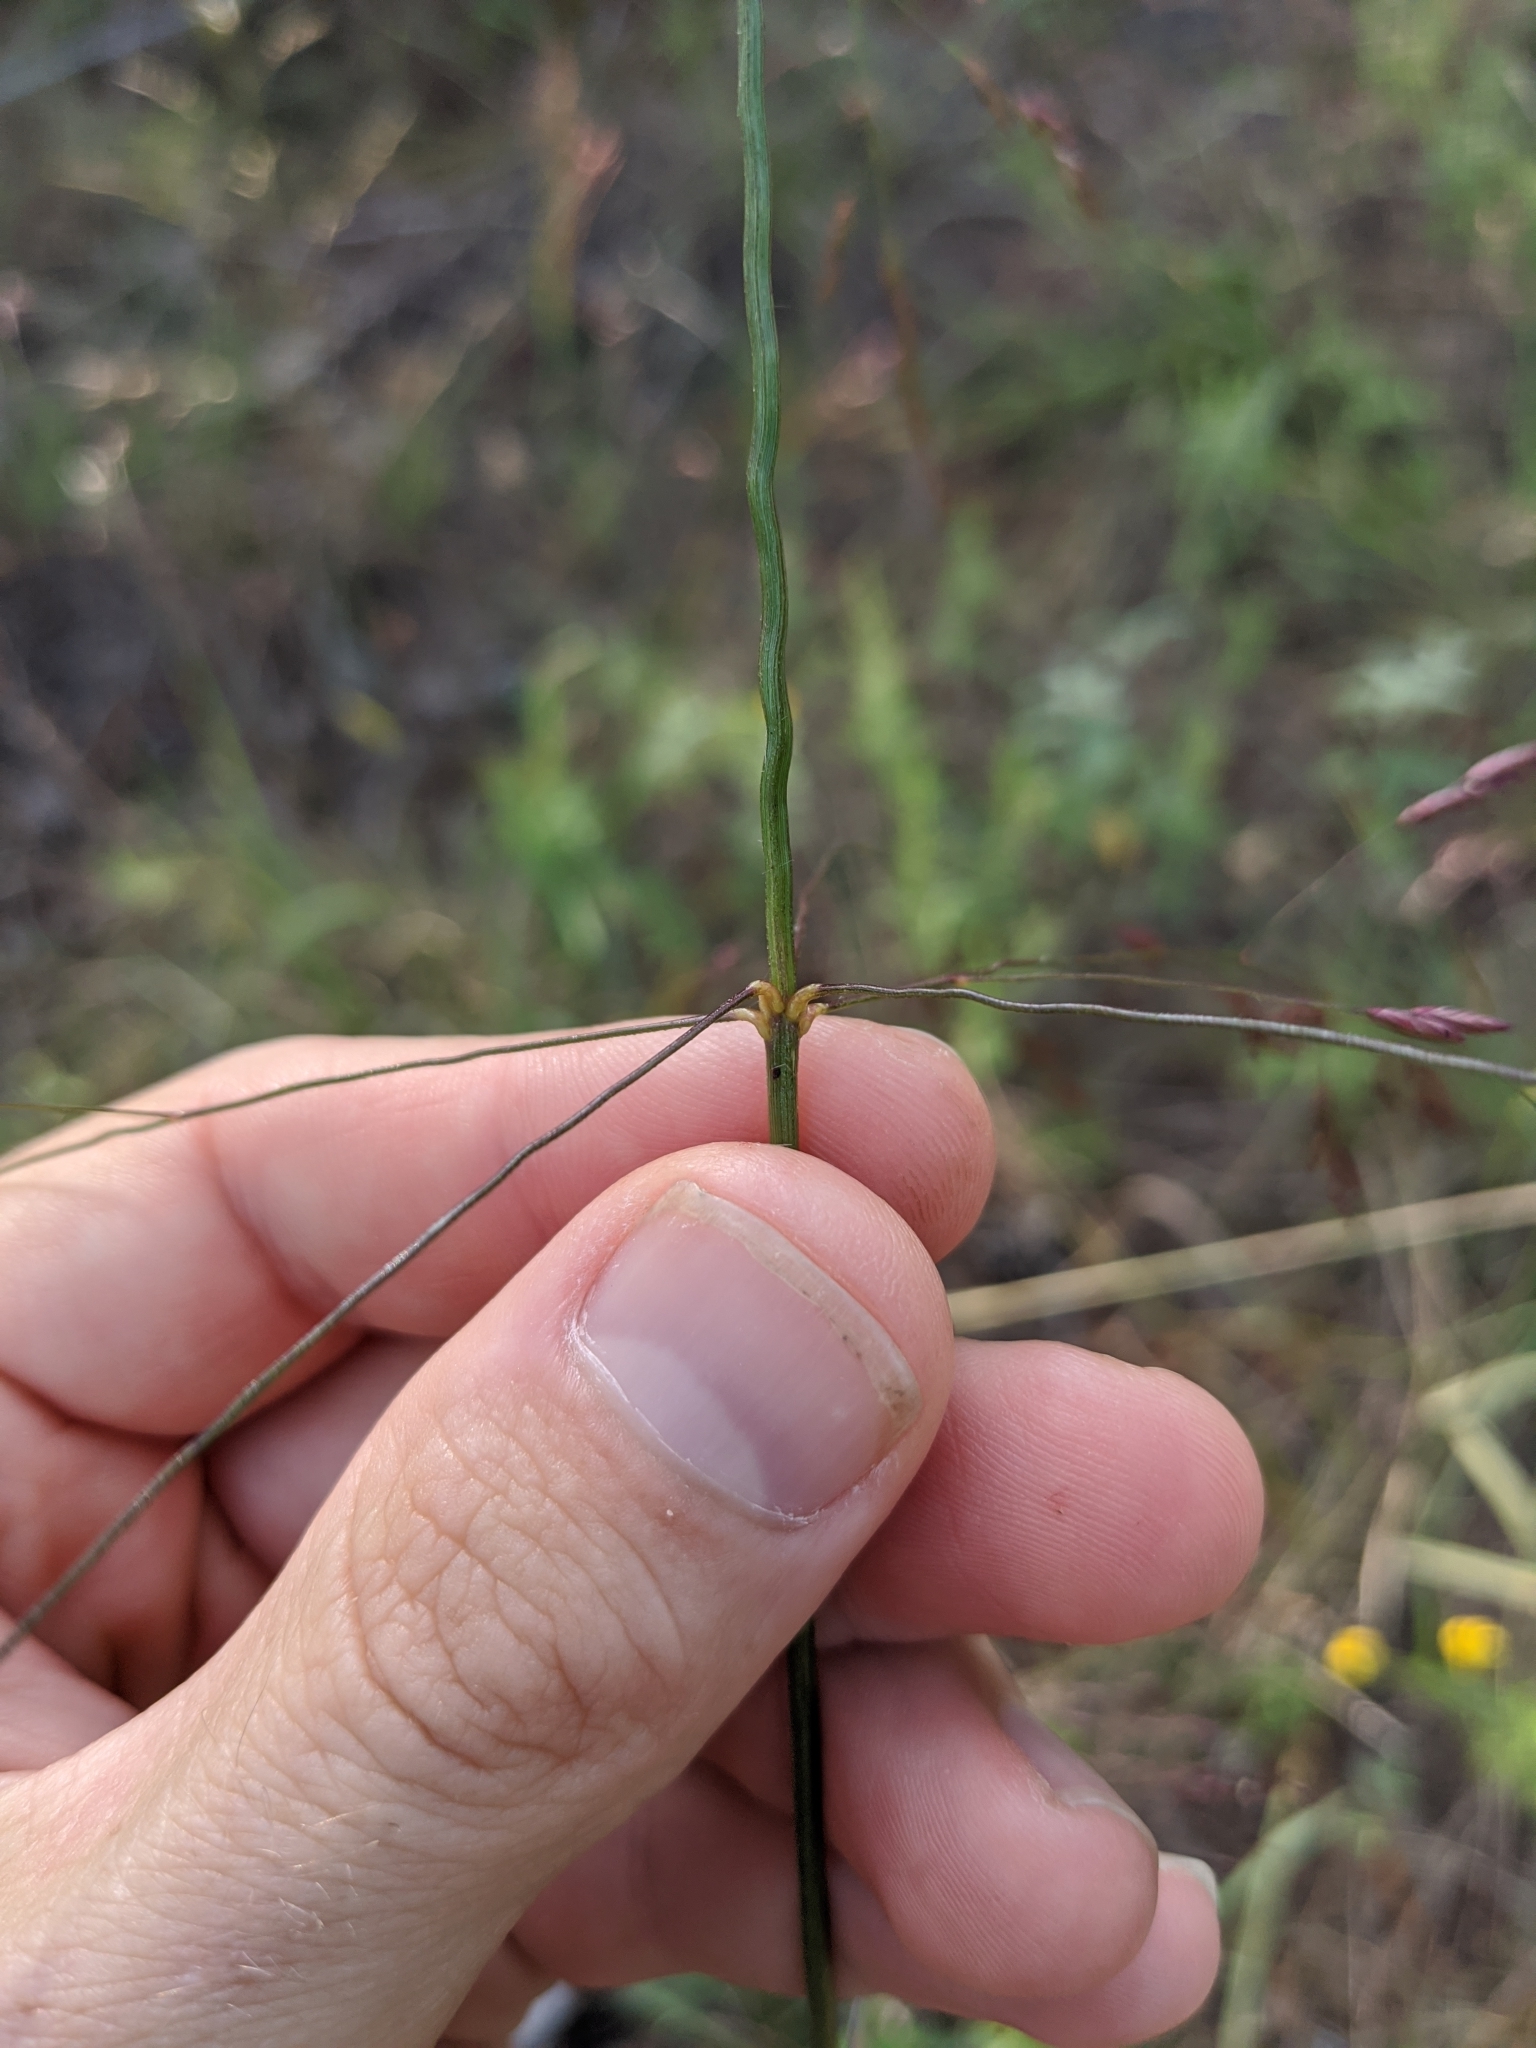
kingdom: Plantae
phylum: Tracheophyta
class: Liliopsida
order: Poales
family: Poaceae
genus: Tridens
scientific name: Tridens flavus
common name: Purpletop
